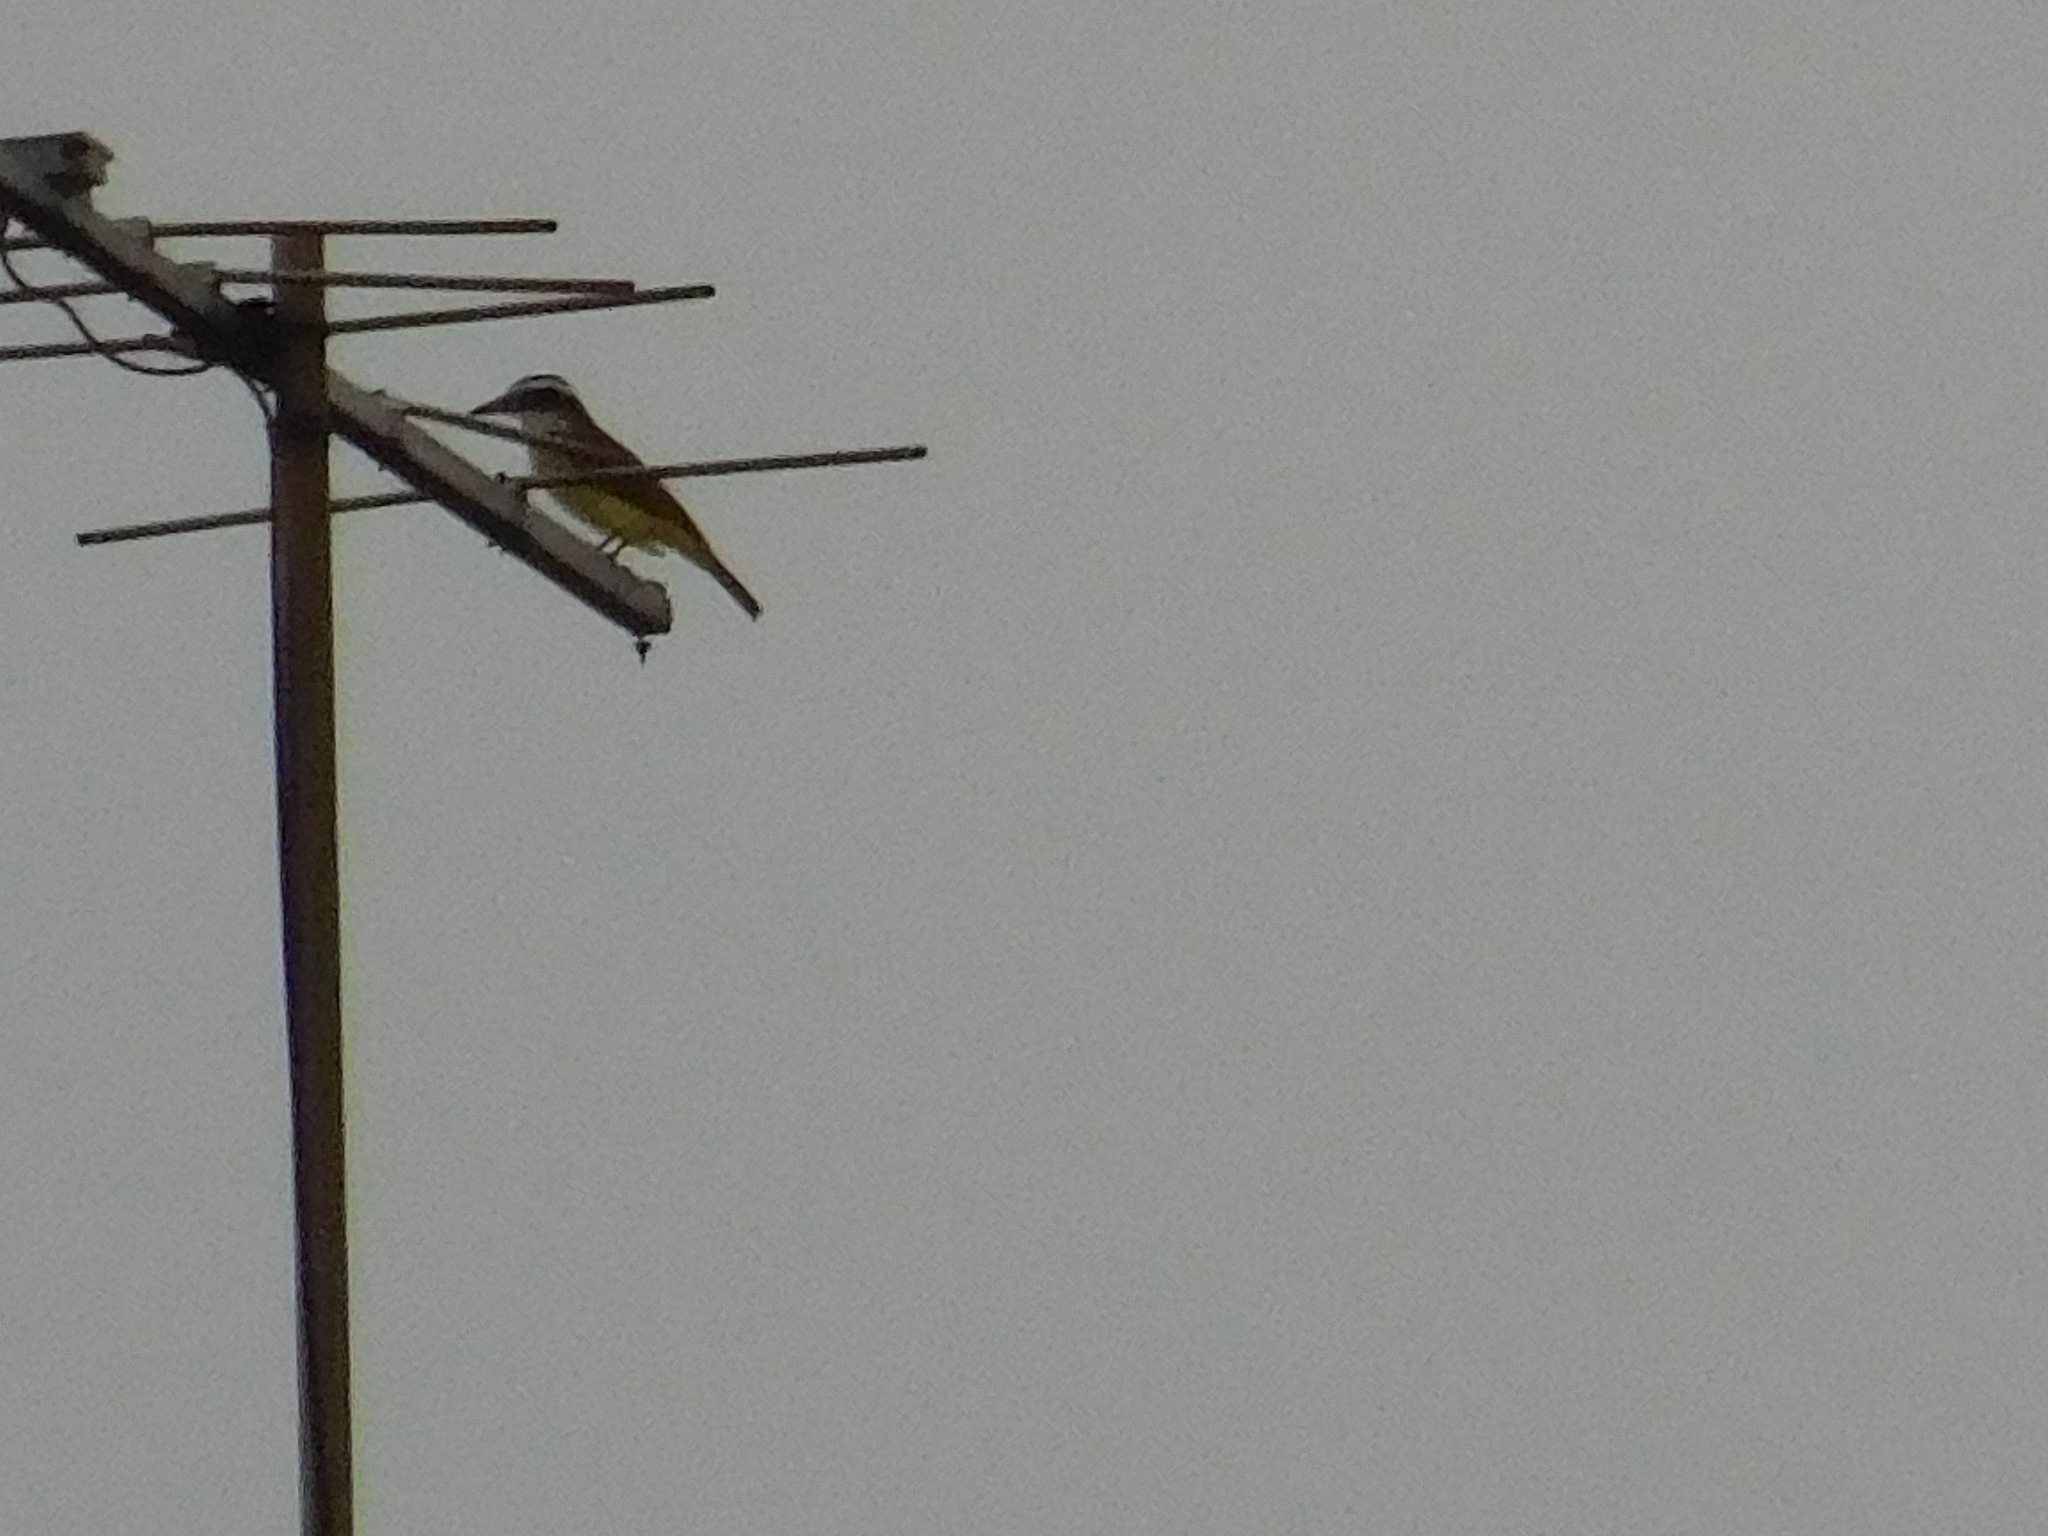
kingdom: Animalia
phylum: Chordata
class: Aves
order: Passeriformes
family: Tyrannidae
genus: Pitangus
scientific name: Pitangus sulphuratus
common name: Great kiskadee
